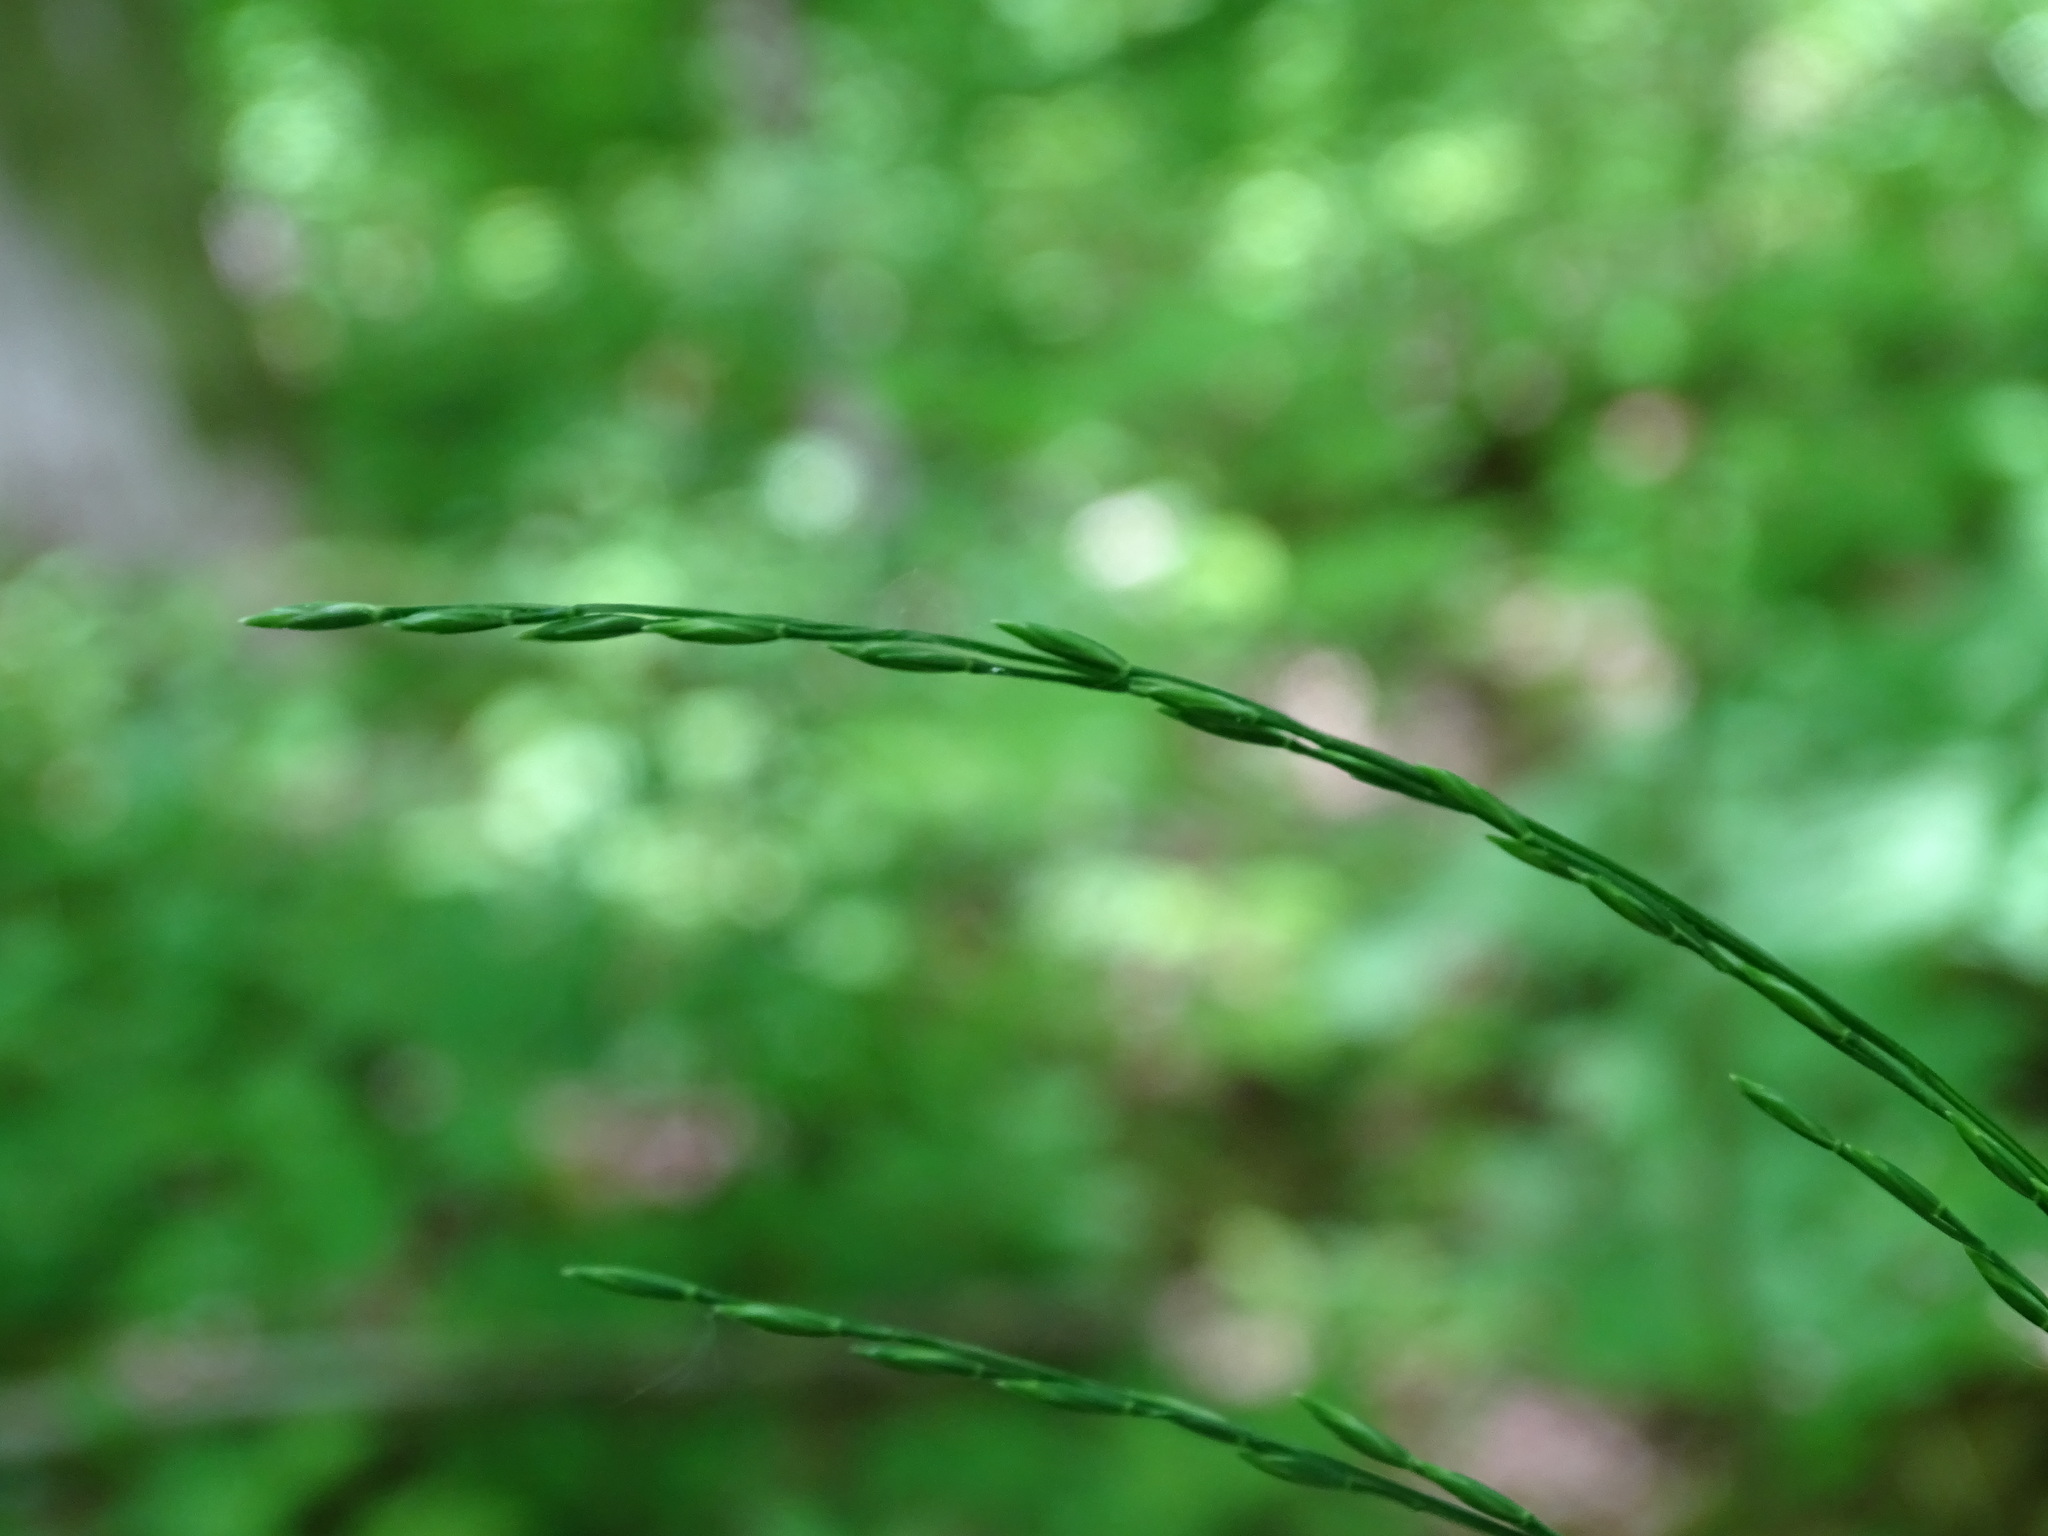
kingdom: Plantae
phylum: Tracheophyta
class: Liliopsida
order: Poales
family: Poaceae
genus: Patis
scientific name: Patis racemosa
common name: Black-fruited mountain rice
